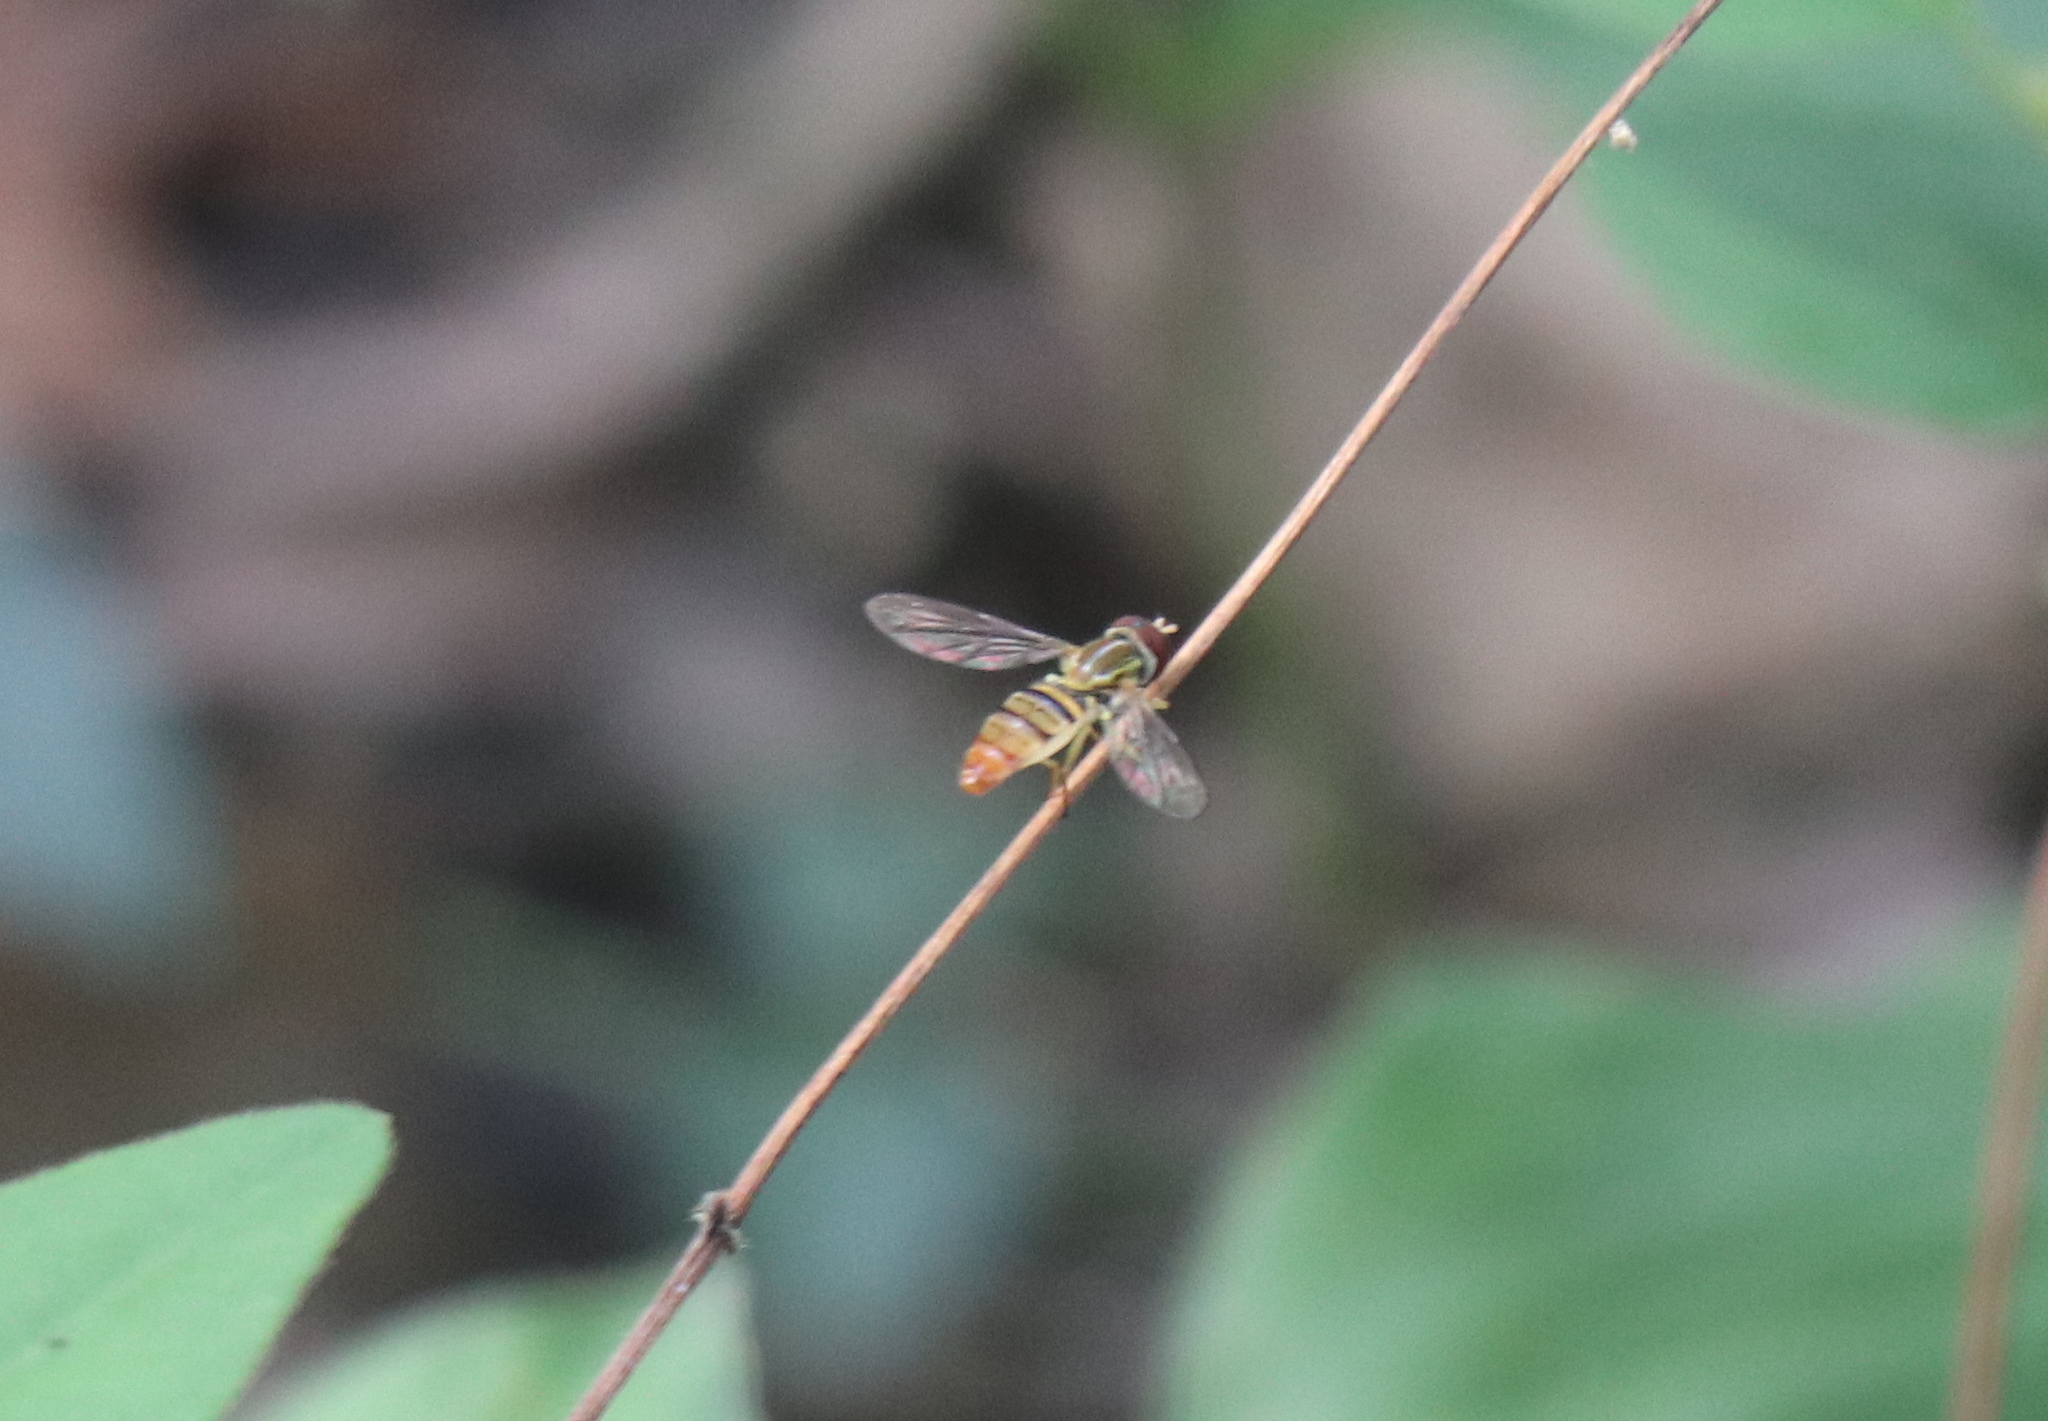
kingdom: Animalia
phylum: Arthropoda
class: Insecta
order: Diptera
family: Syrphidae
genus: Toxomerus
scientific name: Toxomerus politus
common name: Maize calligrapher
